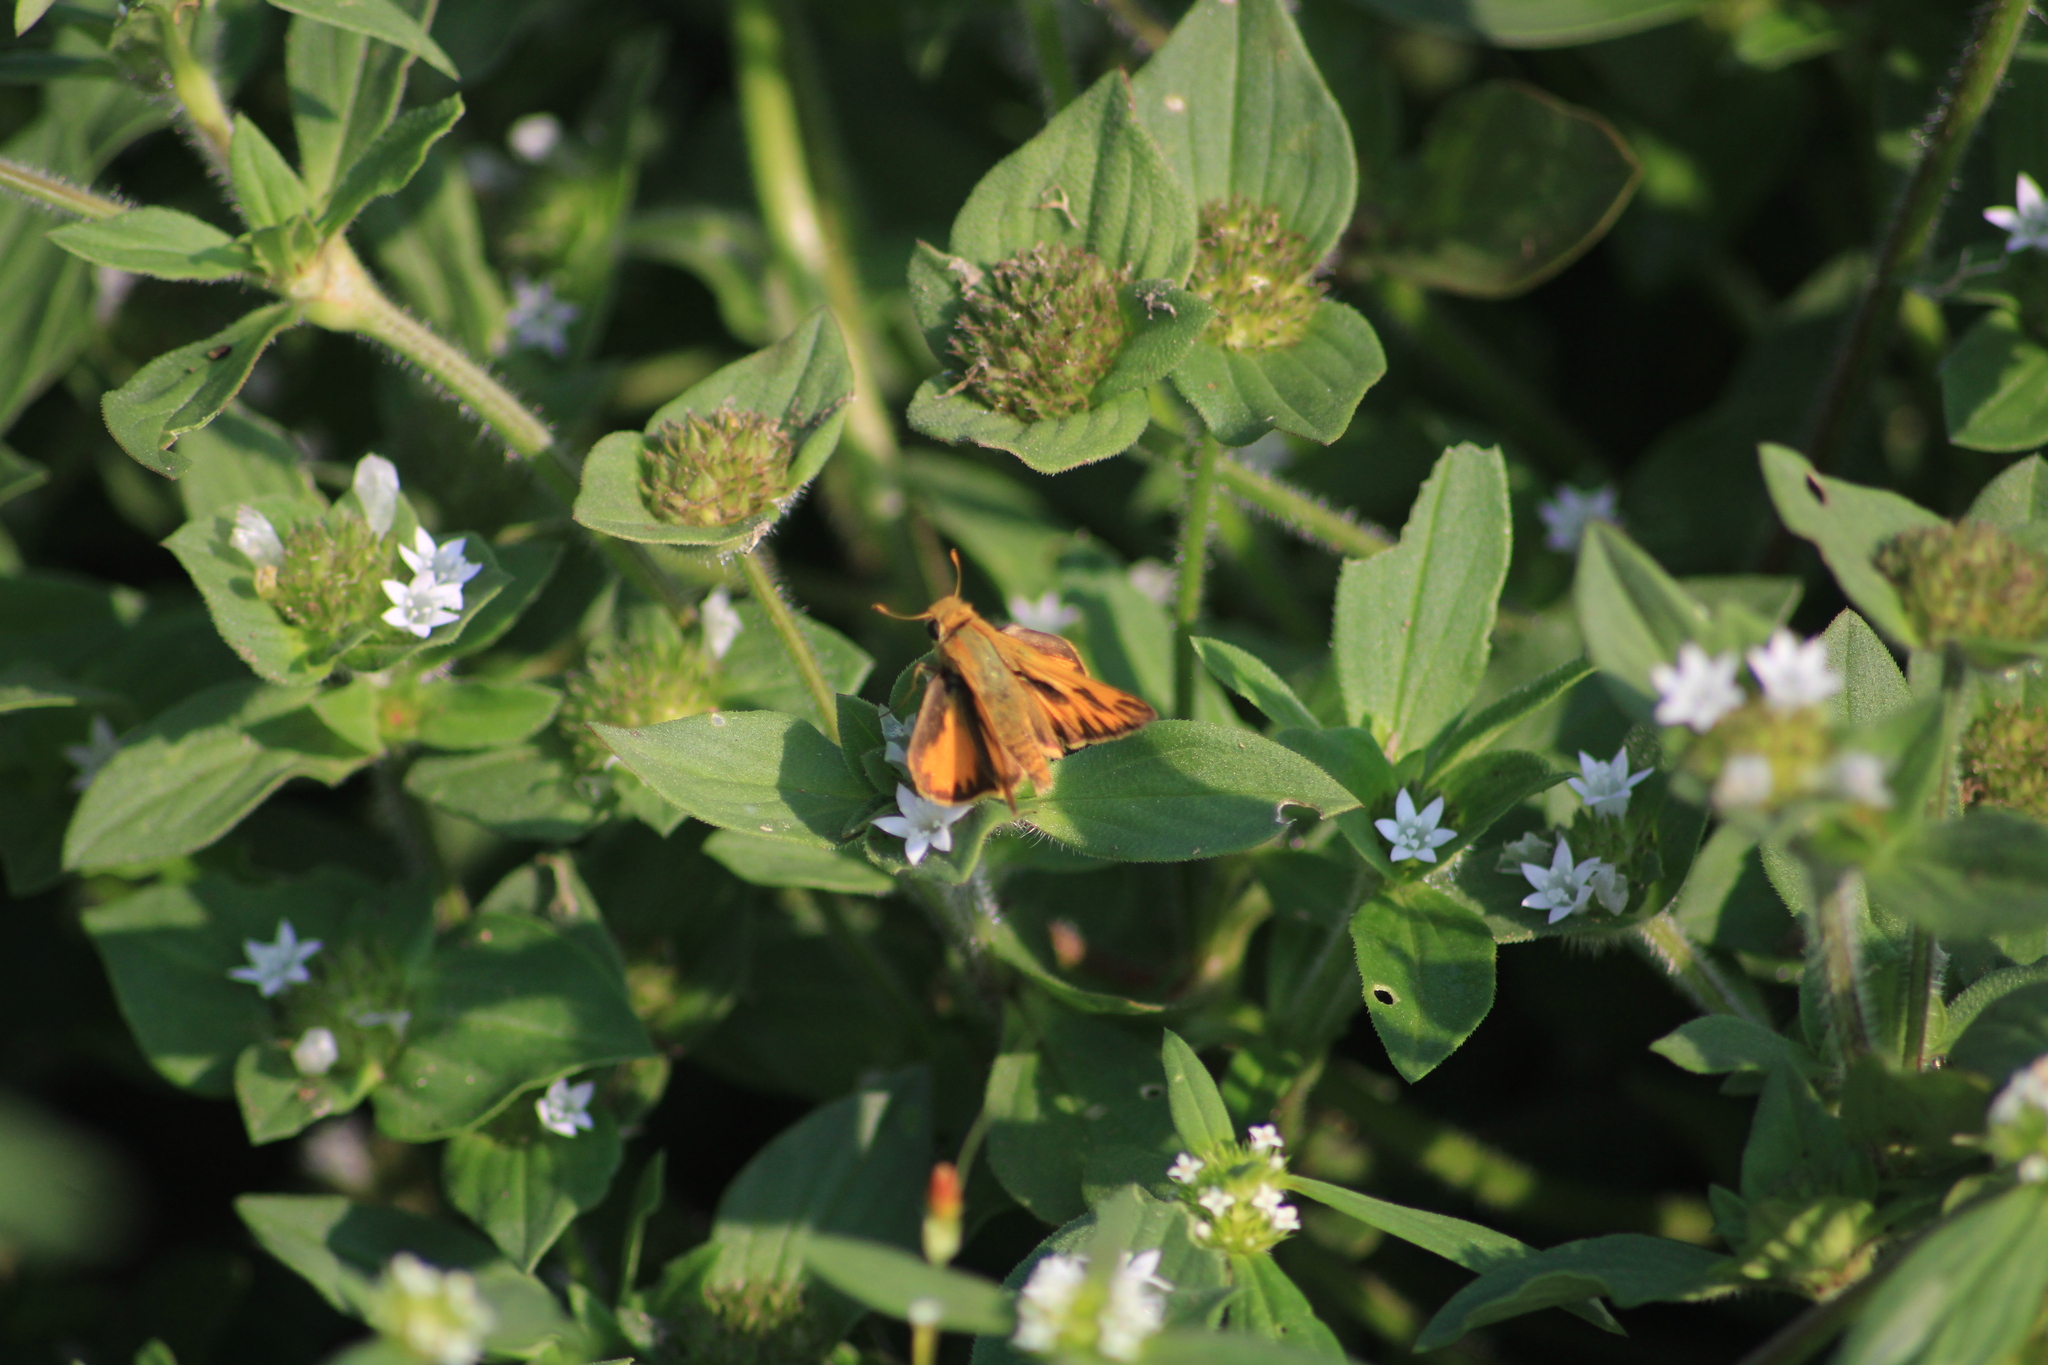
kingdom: Animalia
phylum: Arthropoda
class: Insecta
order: Lepidoptera
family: Hesperiidae
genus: Hylephila
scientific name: Hylephila phyleus
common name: Fiery skipper
